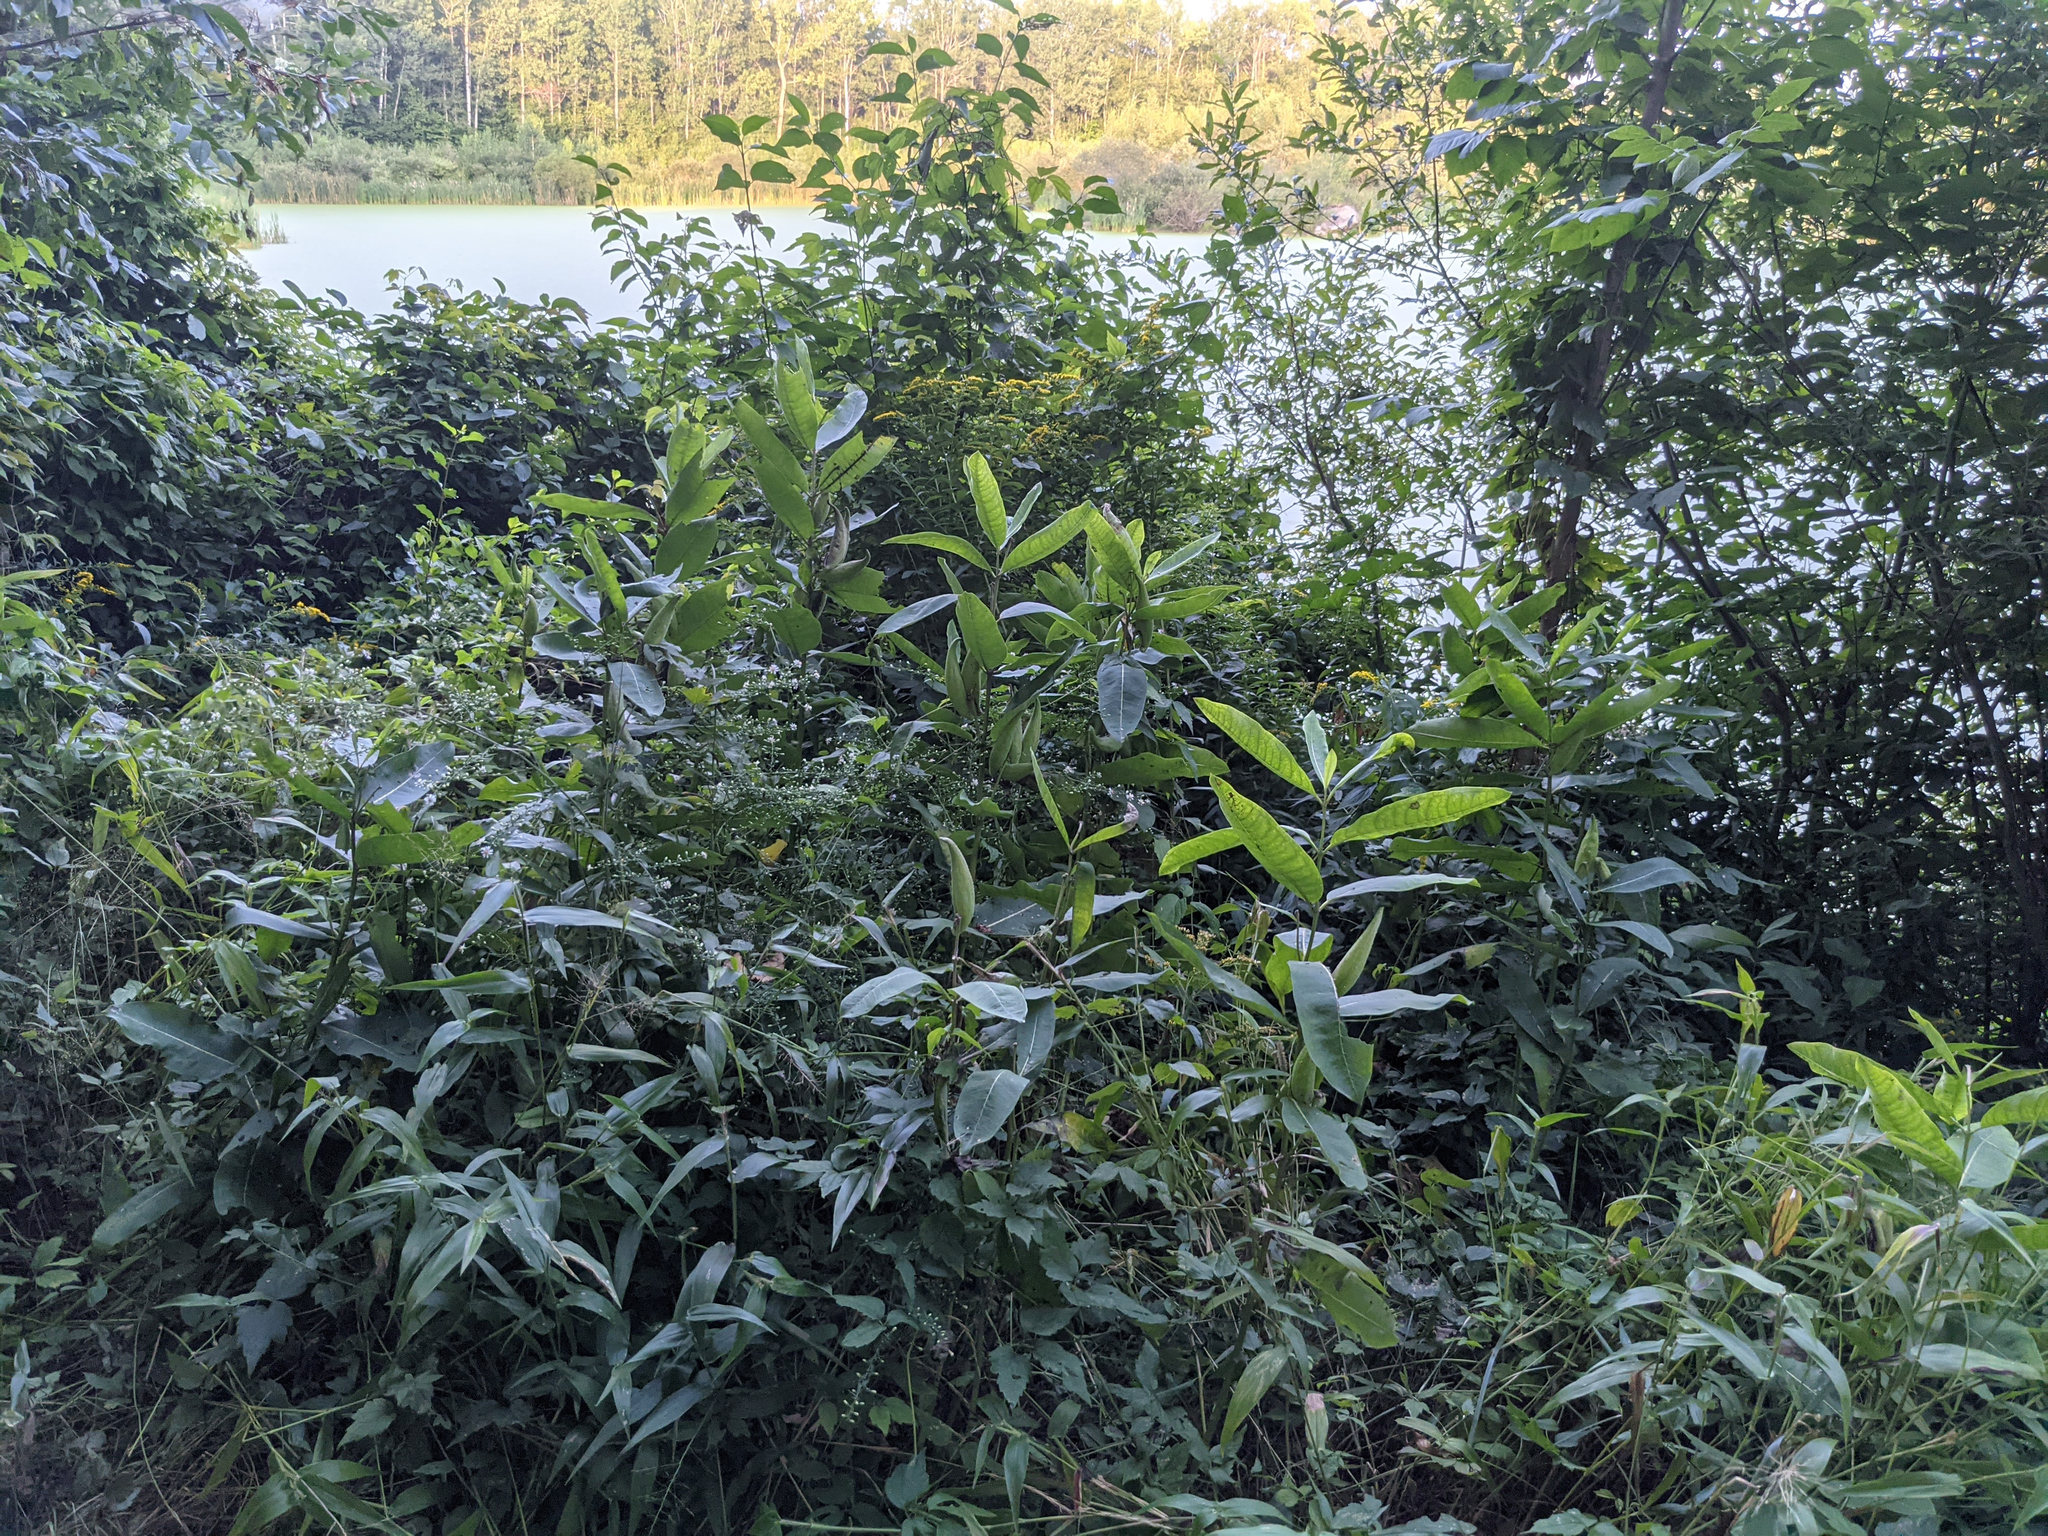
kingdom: Plantae
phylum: Tracheophyta
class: Magnoliopsida
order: Gentianales
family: Apocynaceae
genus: Asclepias
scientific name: Asclepias syriaca
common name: Common milkweed
